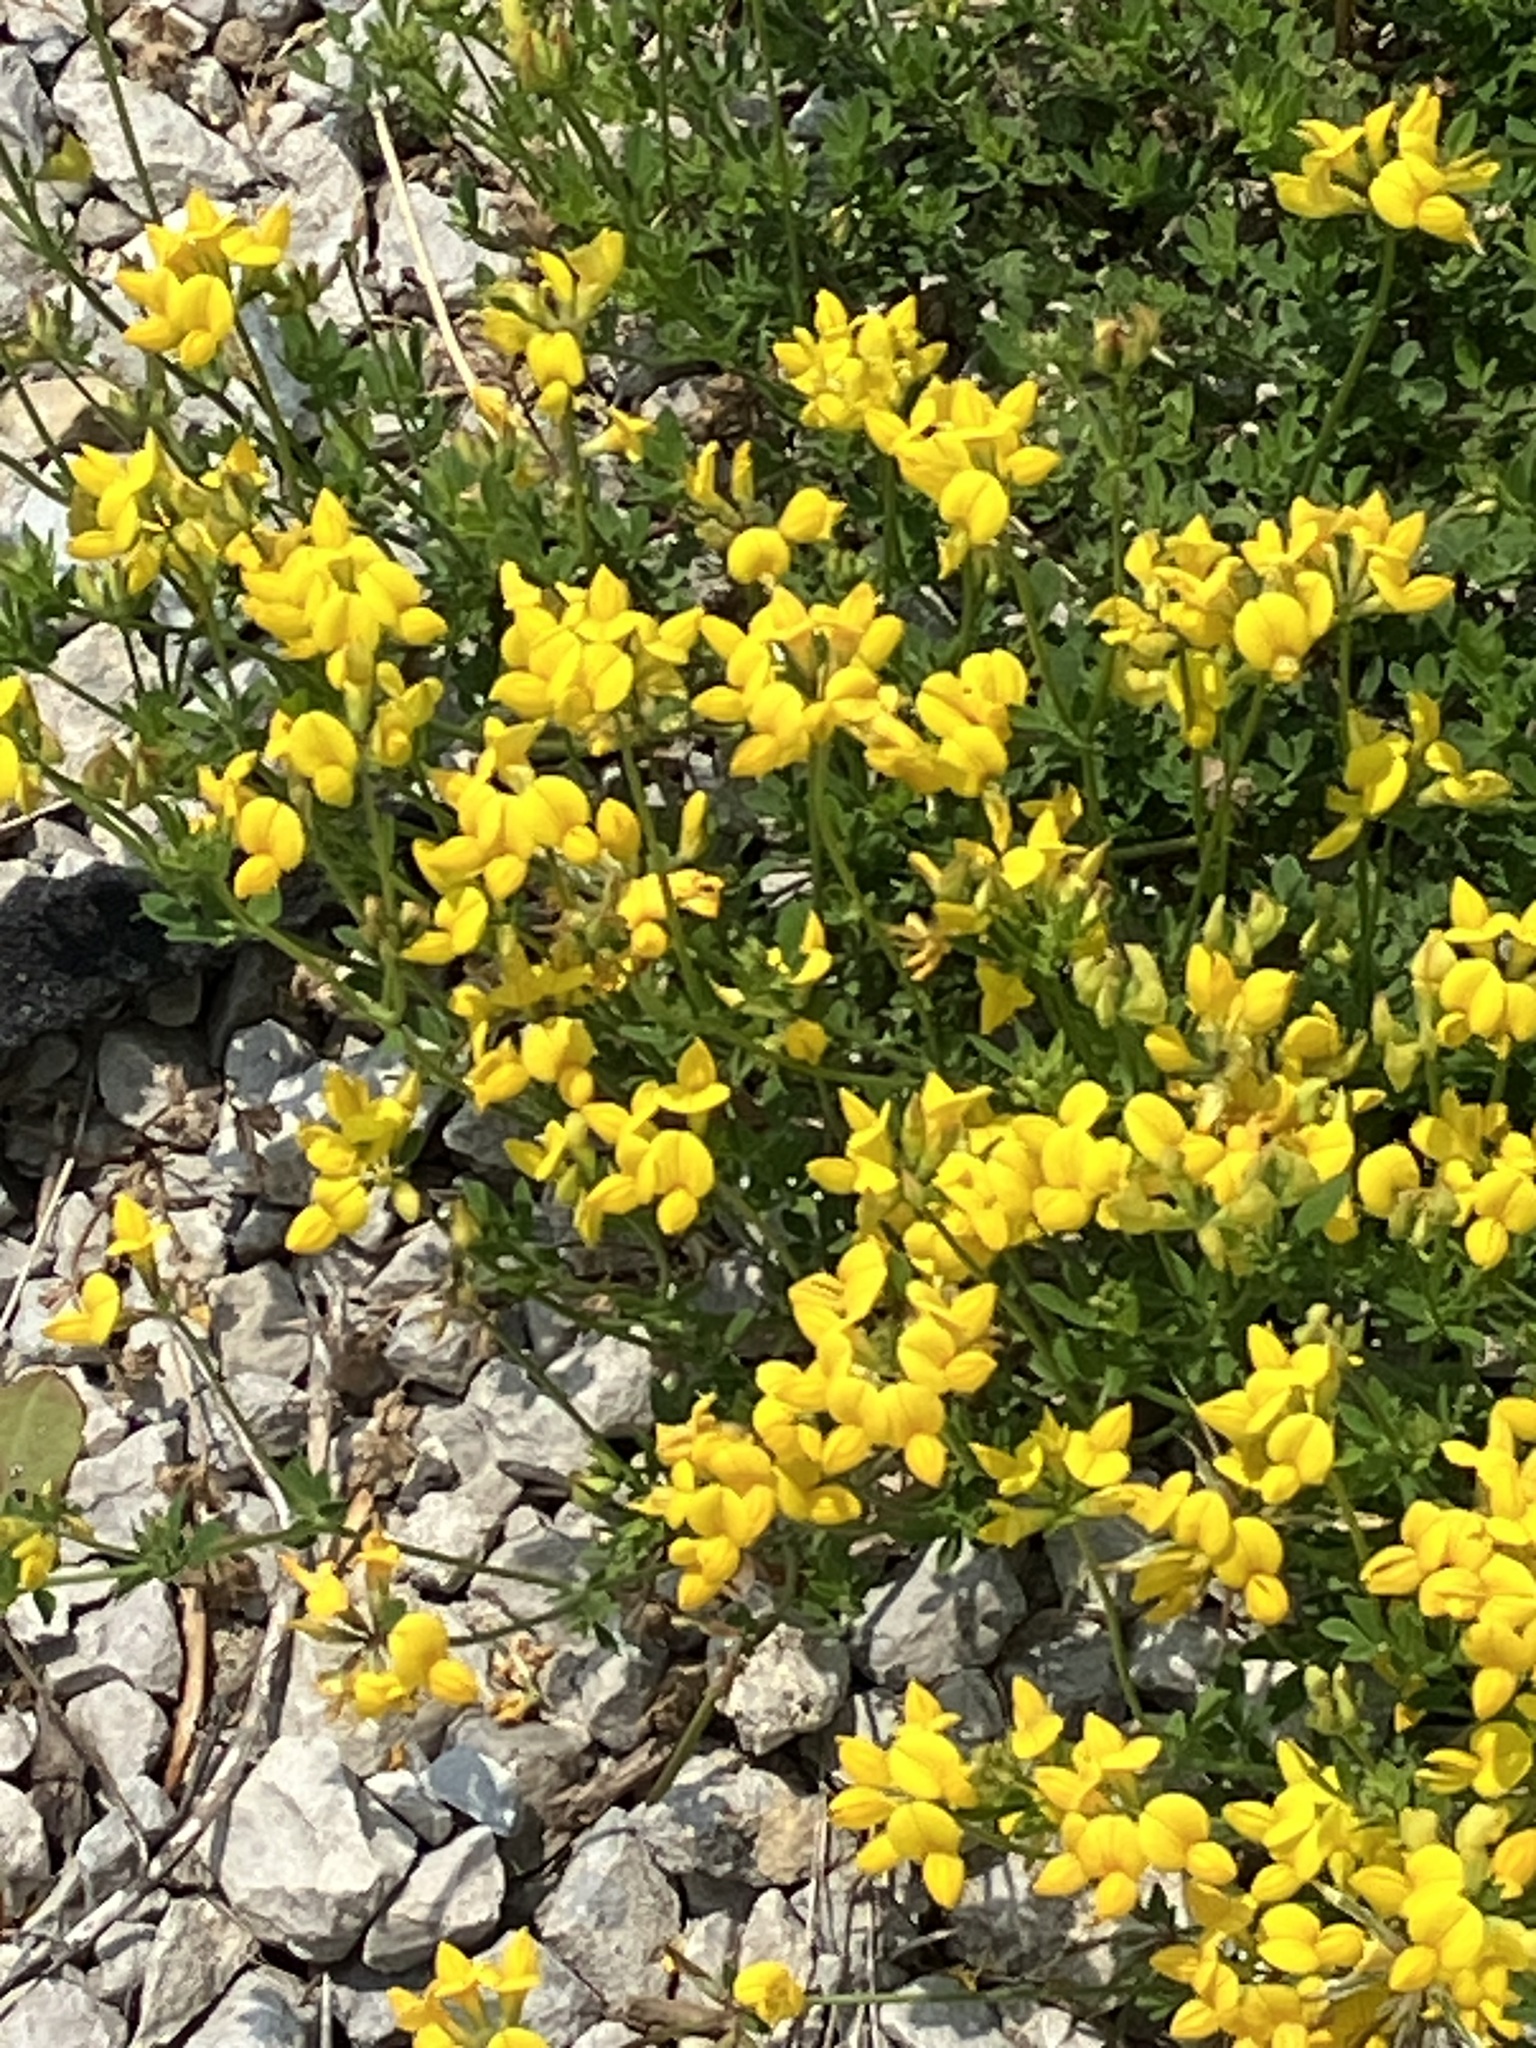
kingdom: Plantae
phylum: Tracheophyta
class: Magnoliopsida
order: Fabales
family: Fabaceae
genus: Lotus
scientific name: Lotus corniculatus
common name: Common bird's-foot-trefoil
